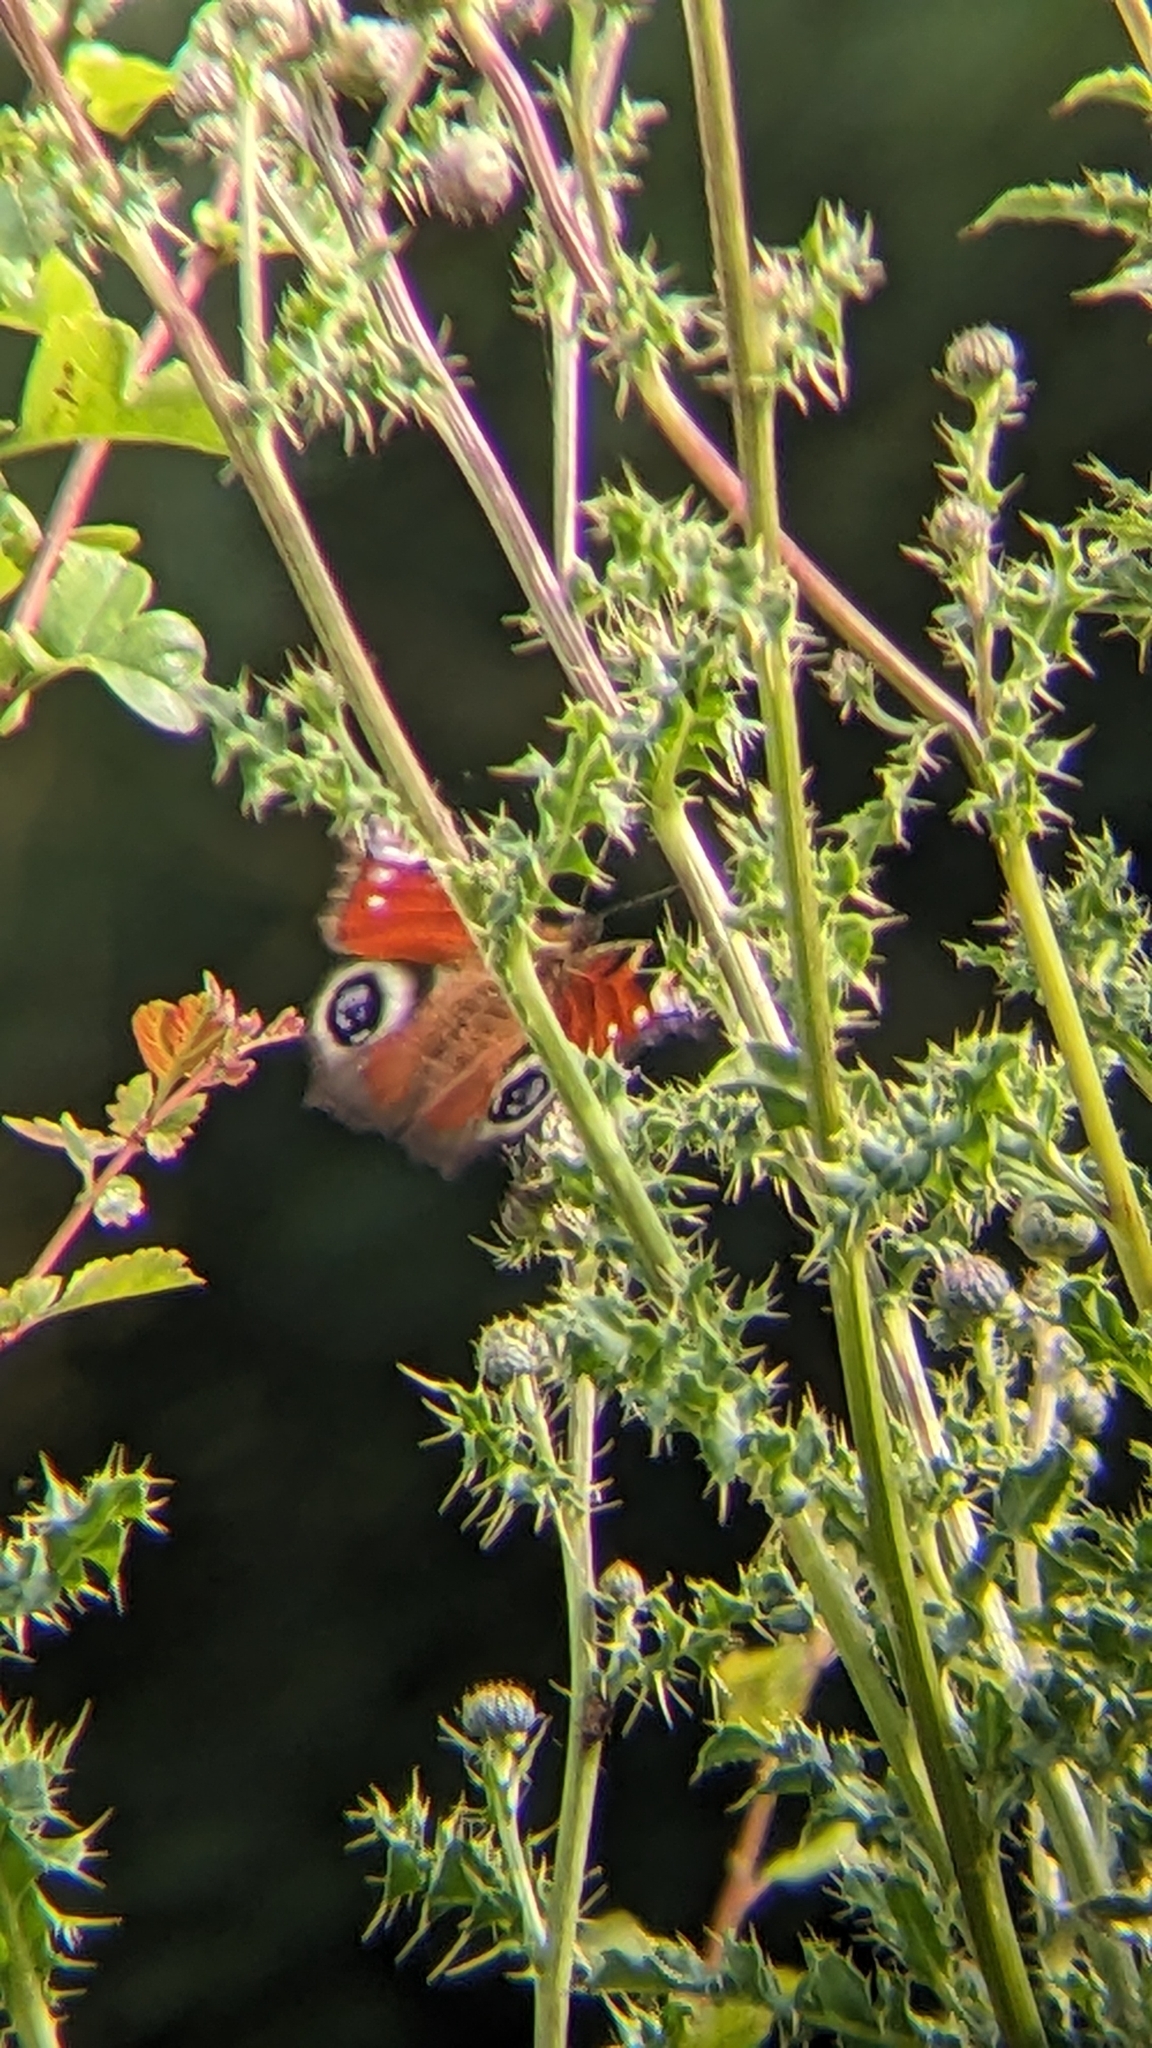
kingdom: Animalia
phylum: Arthropoda
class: Insecta
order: Lepidoptera
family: Nymphalidae
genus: Aglais
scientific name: Aglais io
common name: Peacock
